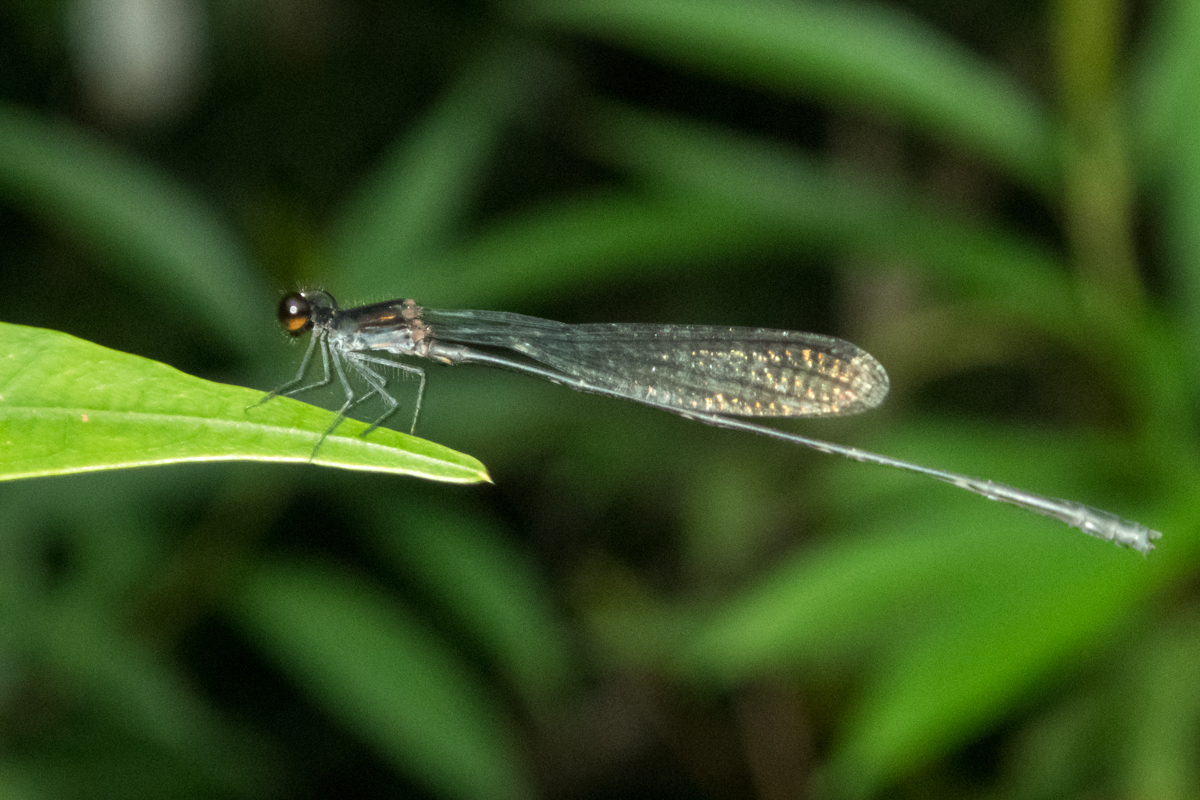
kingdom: Animalia
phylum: Arthropoda
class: Insecta
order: Odonata
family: Platycnemididae
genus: Prodasineura
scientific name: Prodasineura autumnalis
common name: Black threadtail
